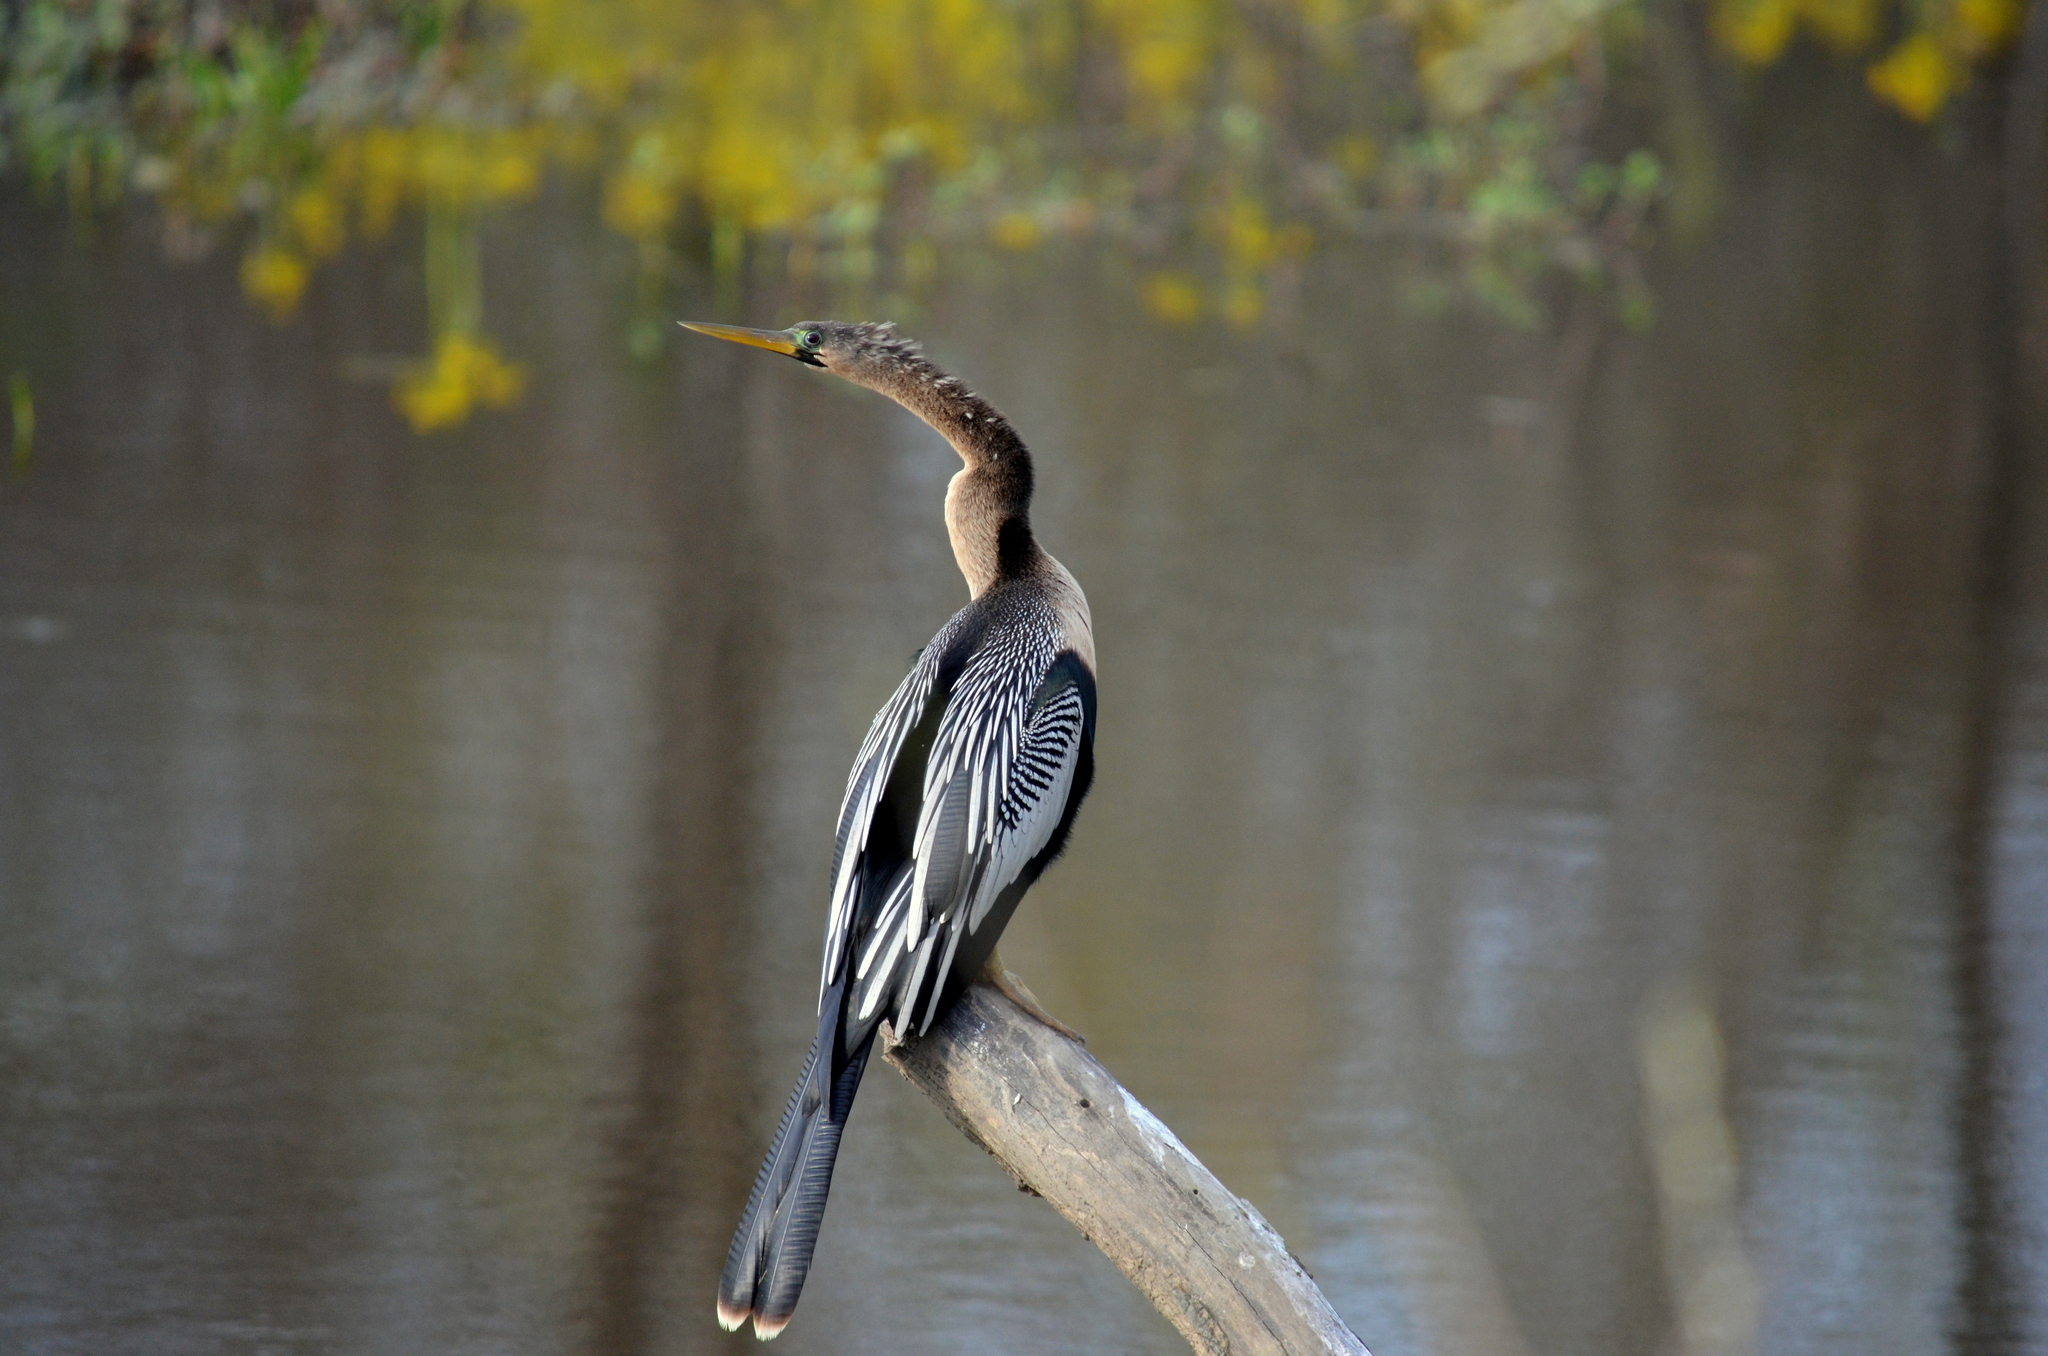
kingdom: Animalia
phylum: Chordata
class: Aves
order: Suliformes
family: Anhingidae
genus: Anhinga
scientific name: Anhinga anhinga
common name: Anhinga
